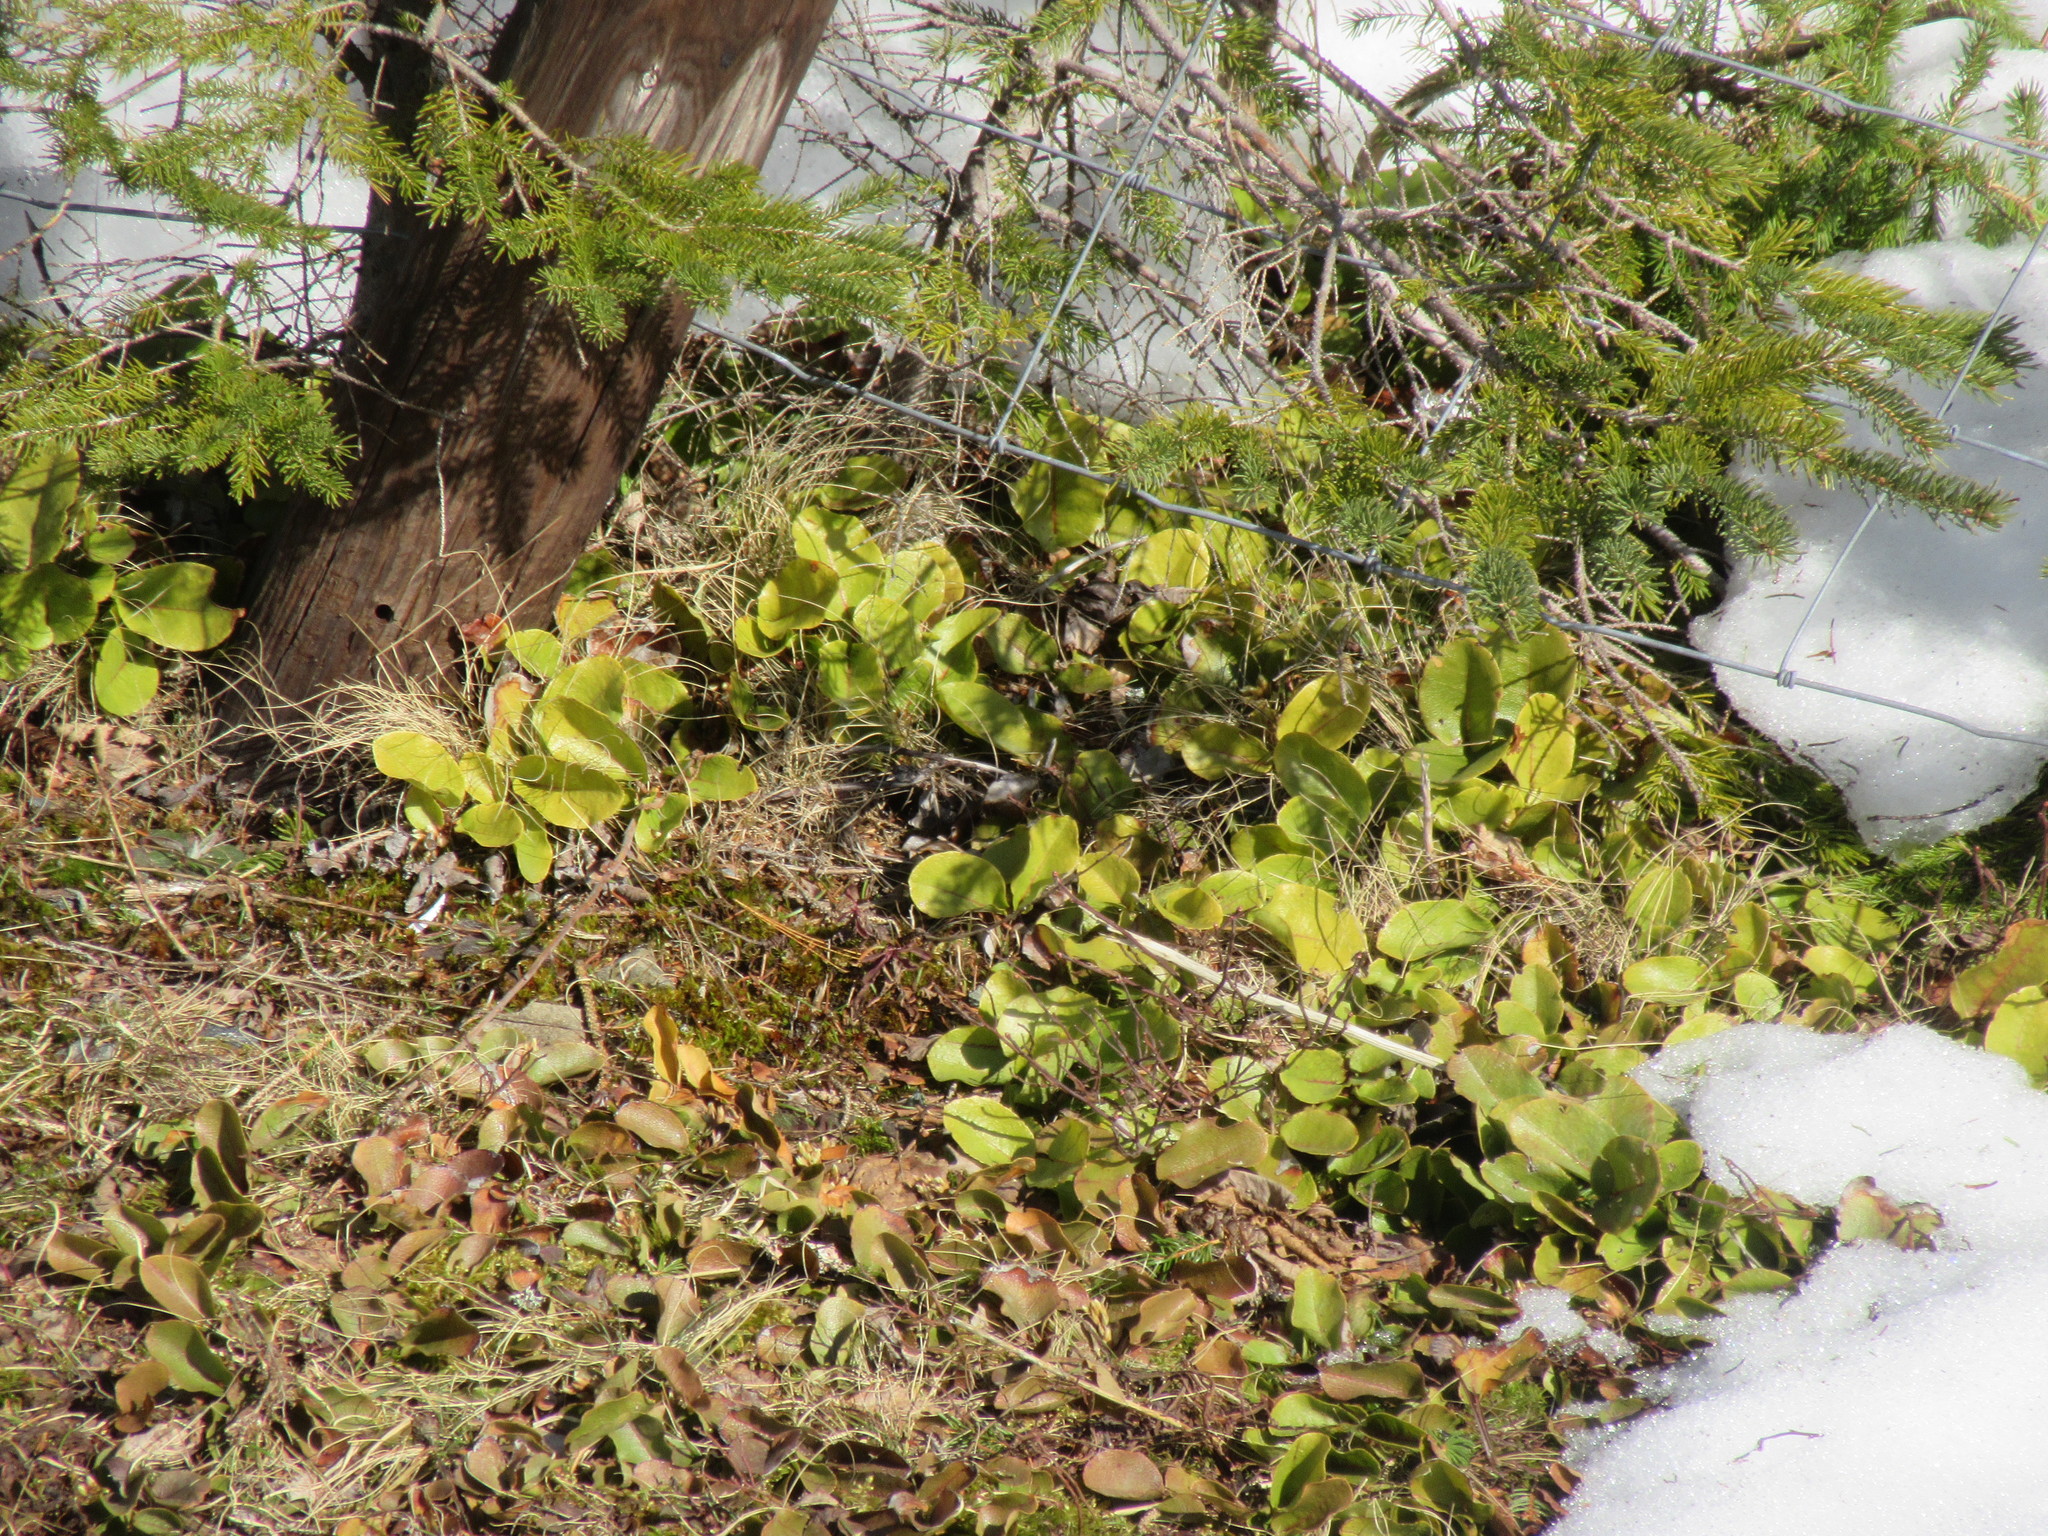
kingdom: Plantae
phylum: Tracheophyta
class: Magnoliopsida
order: Ericales
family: Ericaceae
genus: Epigaea
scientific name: Epigaea repens
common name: Gravelroot
